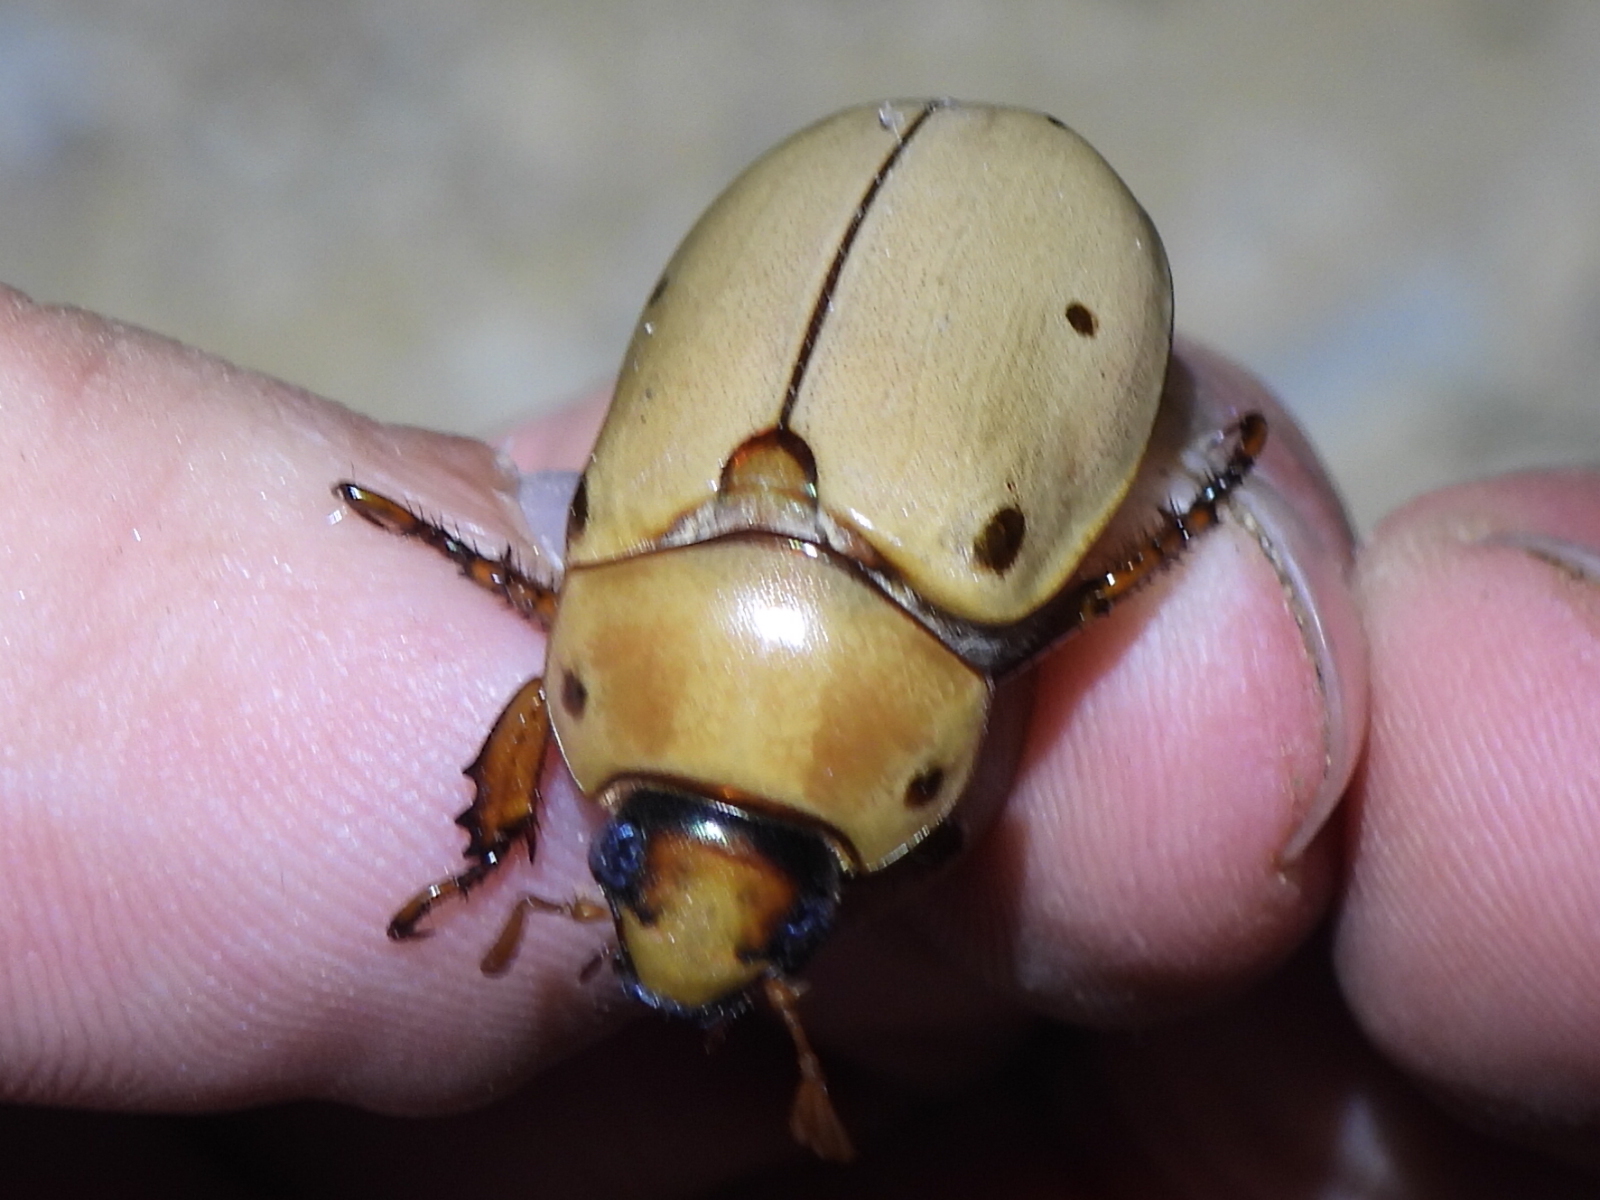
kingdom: Animalia
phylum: Arthropoda
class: Insecta
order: Coleoptera
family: Scarabaeidae
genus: Pelidnota
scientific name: Pelidnota punctata
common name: Grapevine beetle
